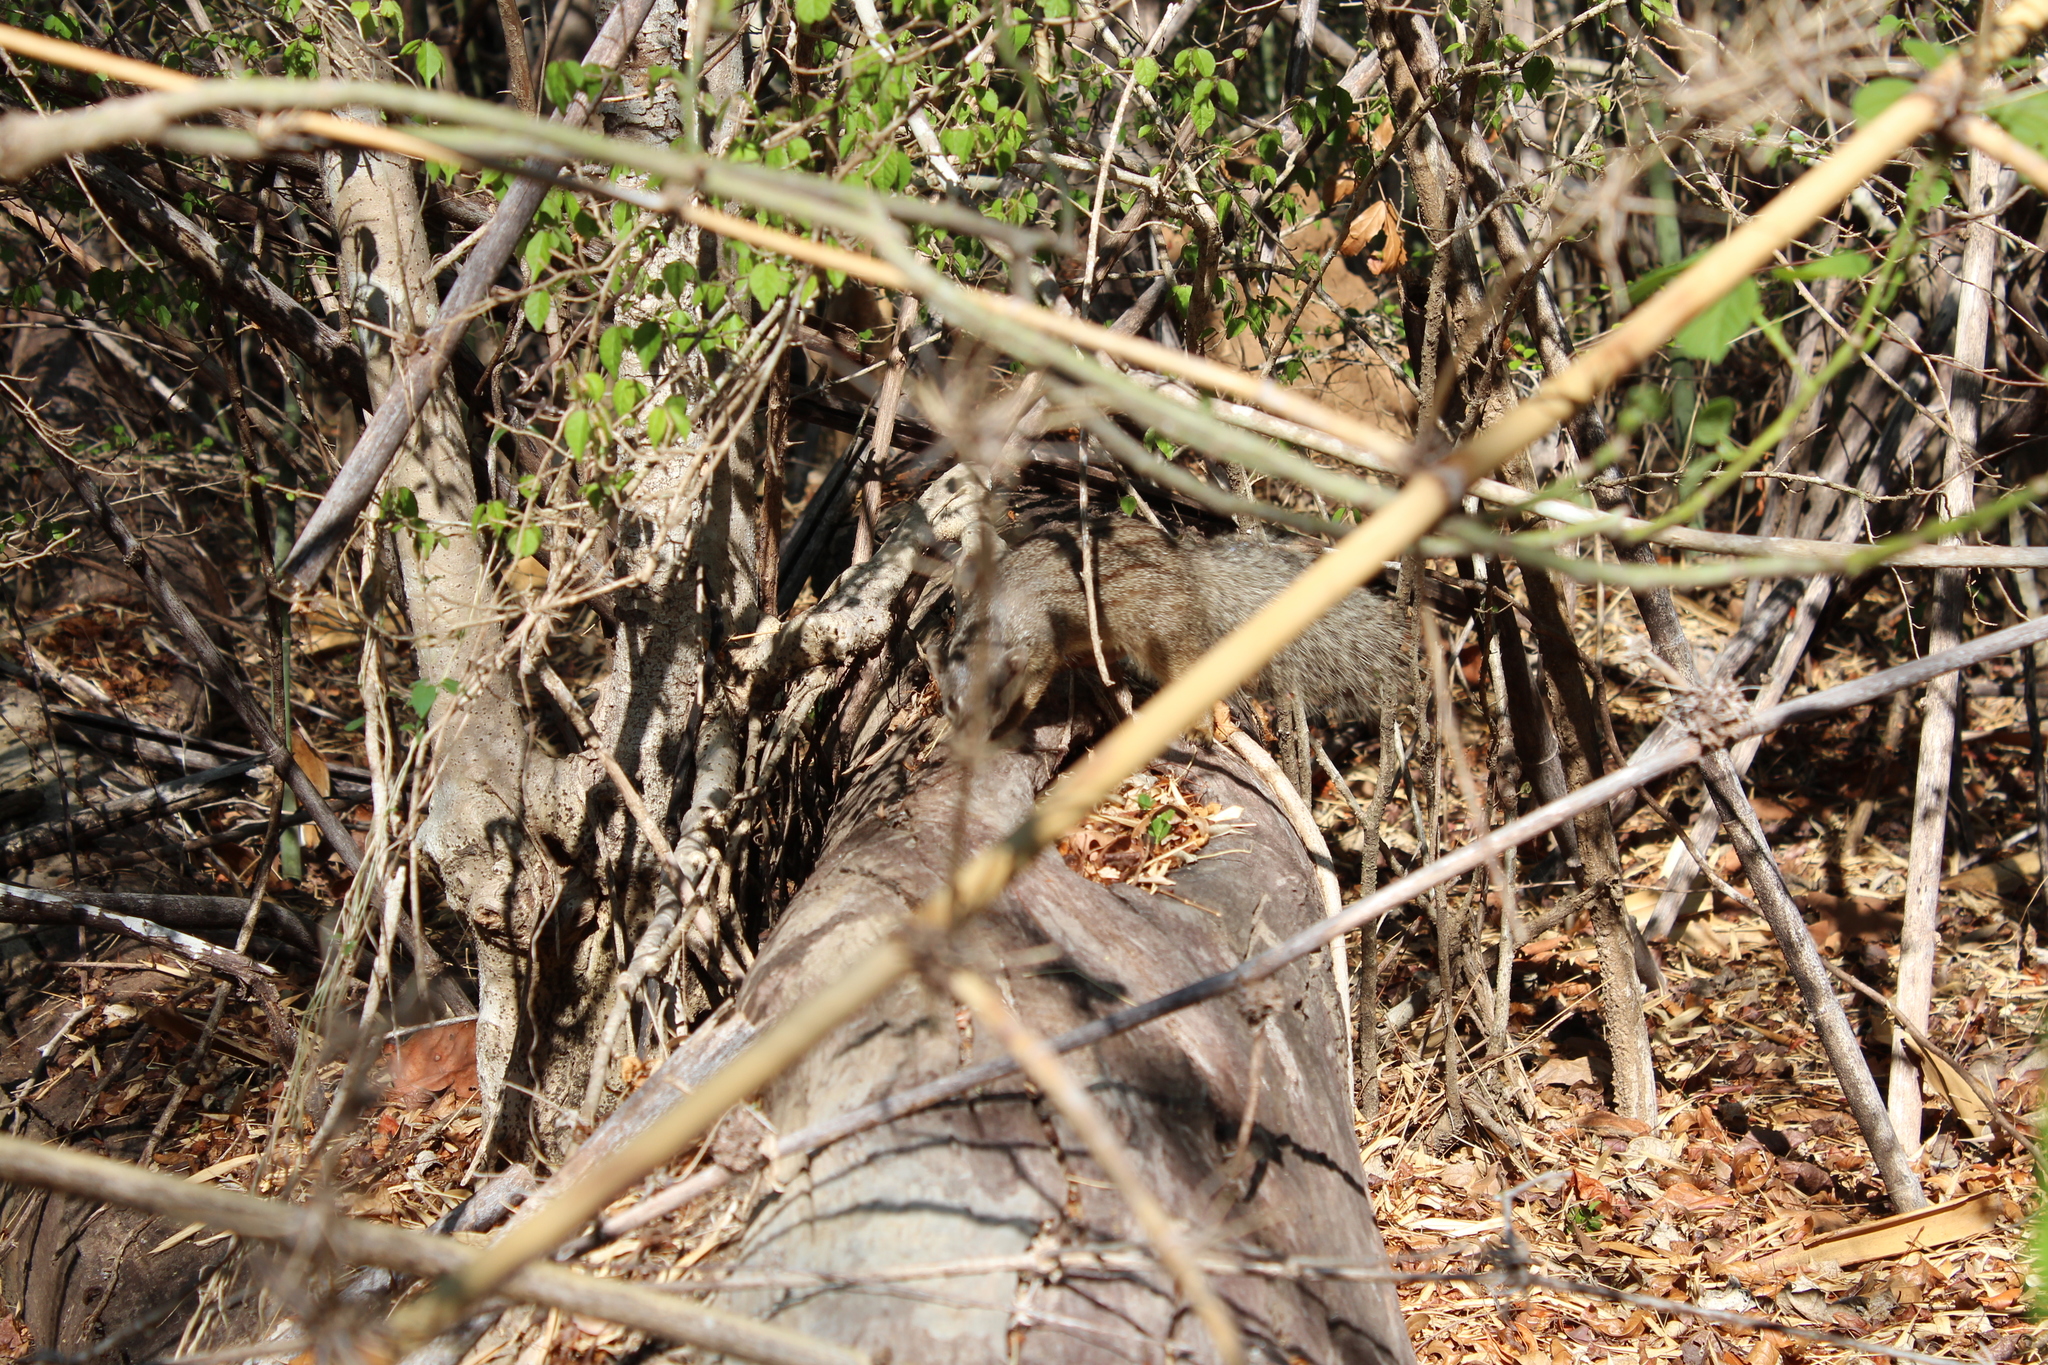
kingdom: Animalia
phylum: Chordata
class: Mammalia
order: Carnivora
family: Eupleridae
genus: Mungotictis
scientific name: Mungotictis decemlineata
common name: Narrow-striped mongoose
